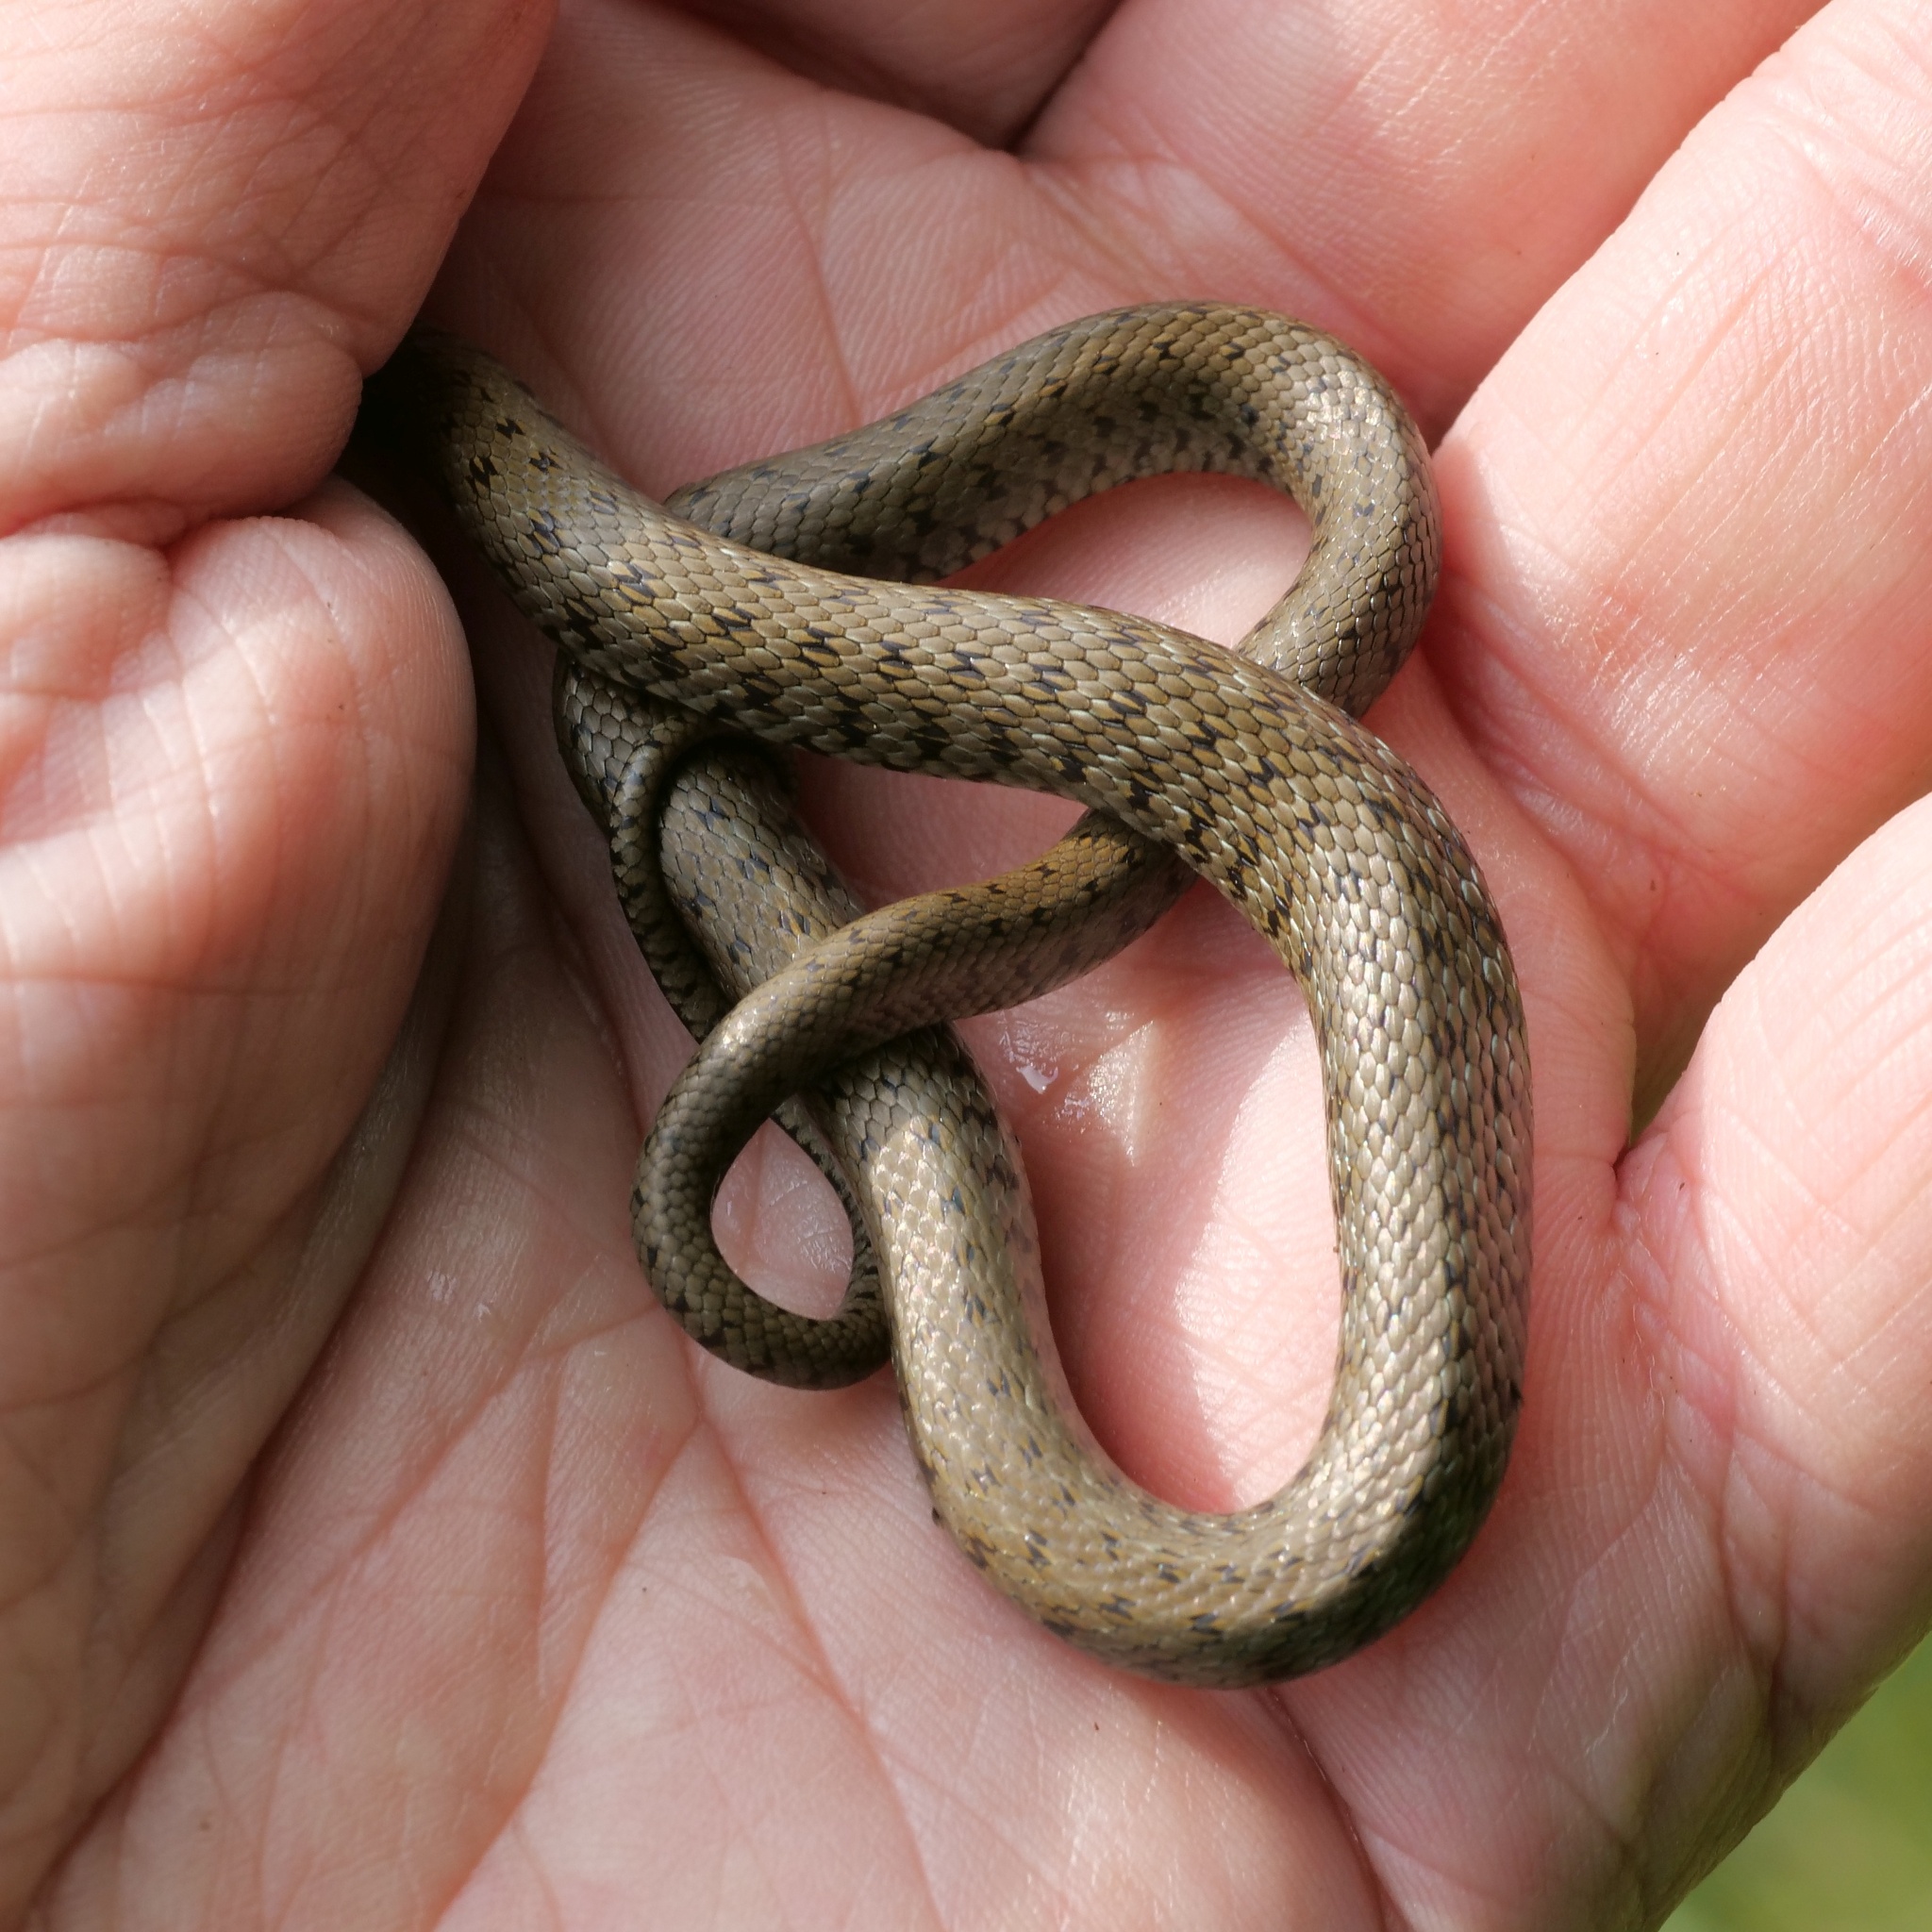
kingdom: Animalia
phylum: Chordata
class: Squamata
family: Colubridae
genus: Natrix
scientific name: Natrix natrix
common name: Grass snake
